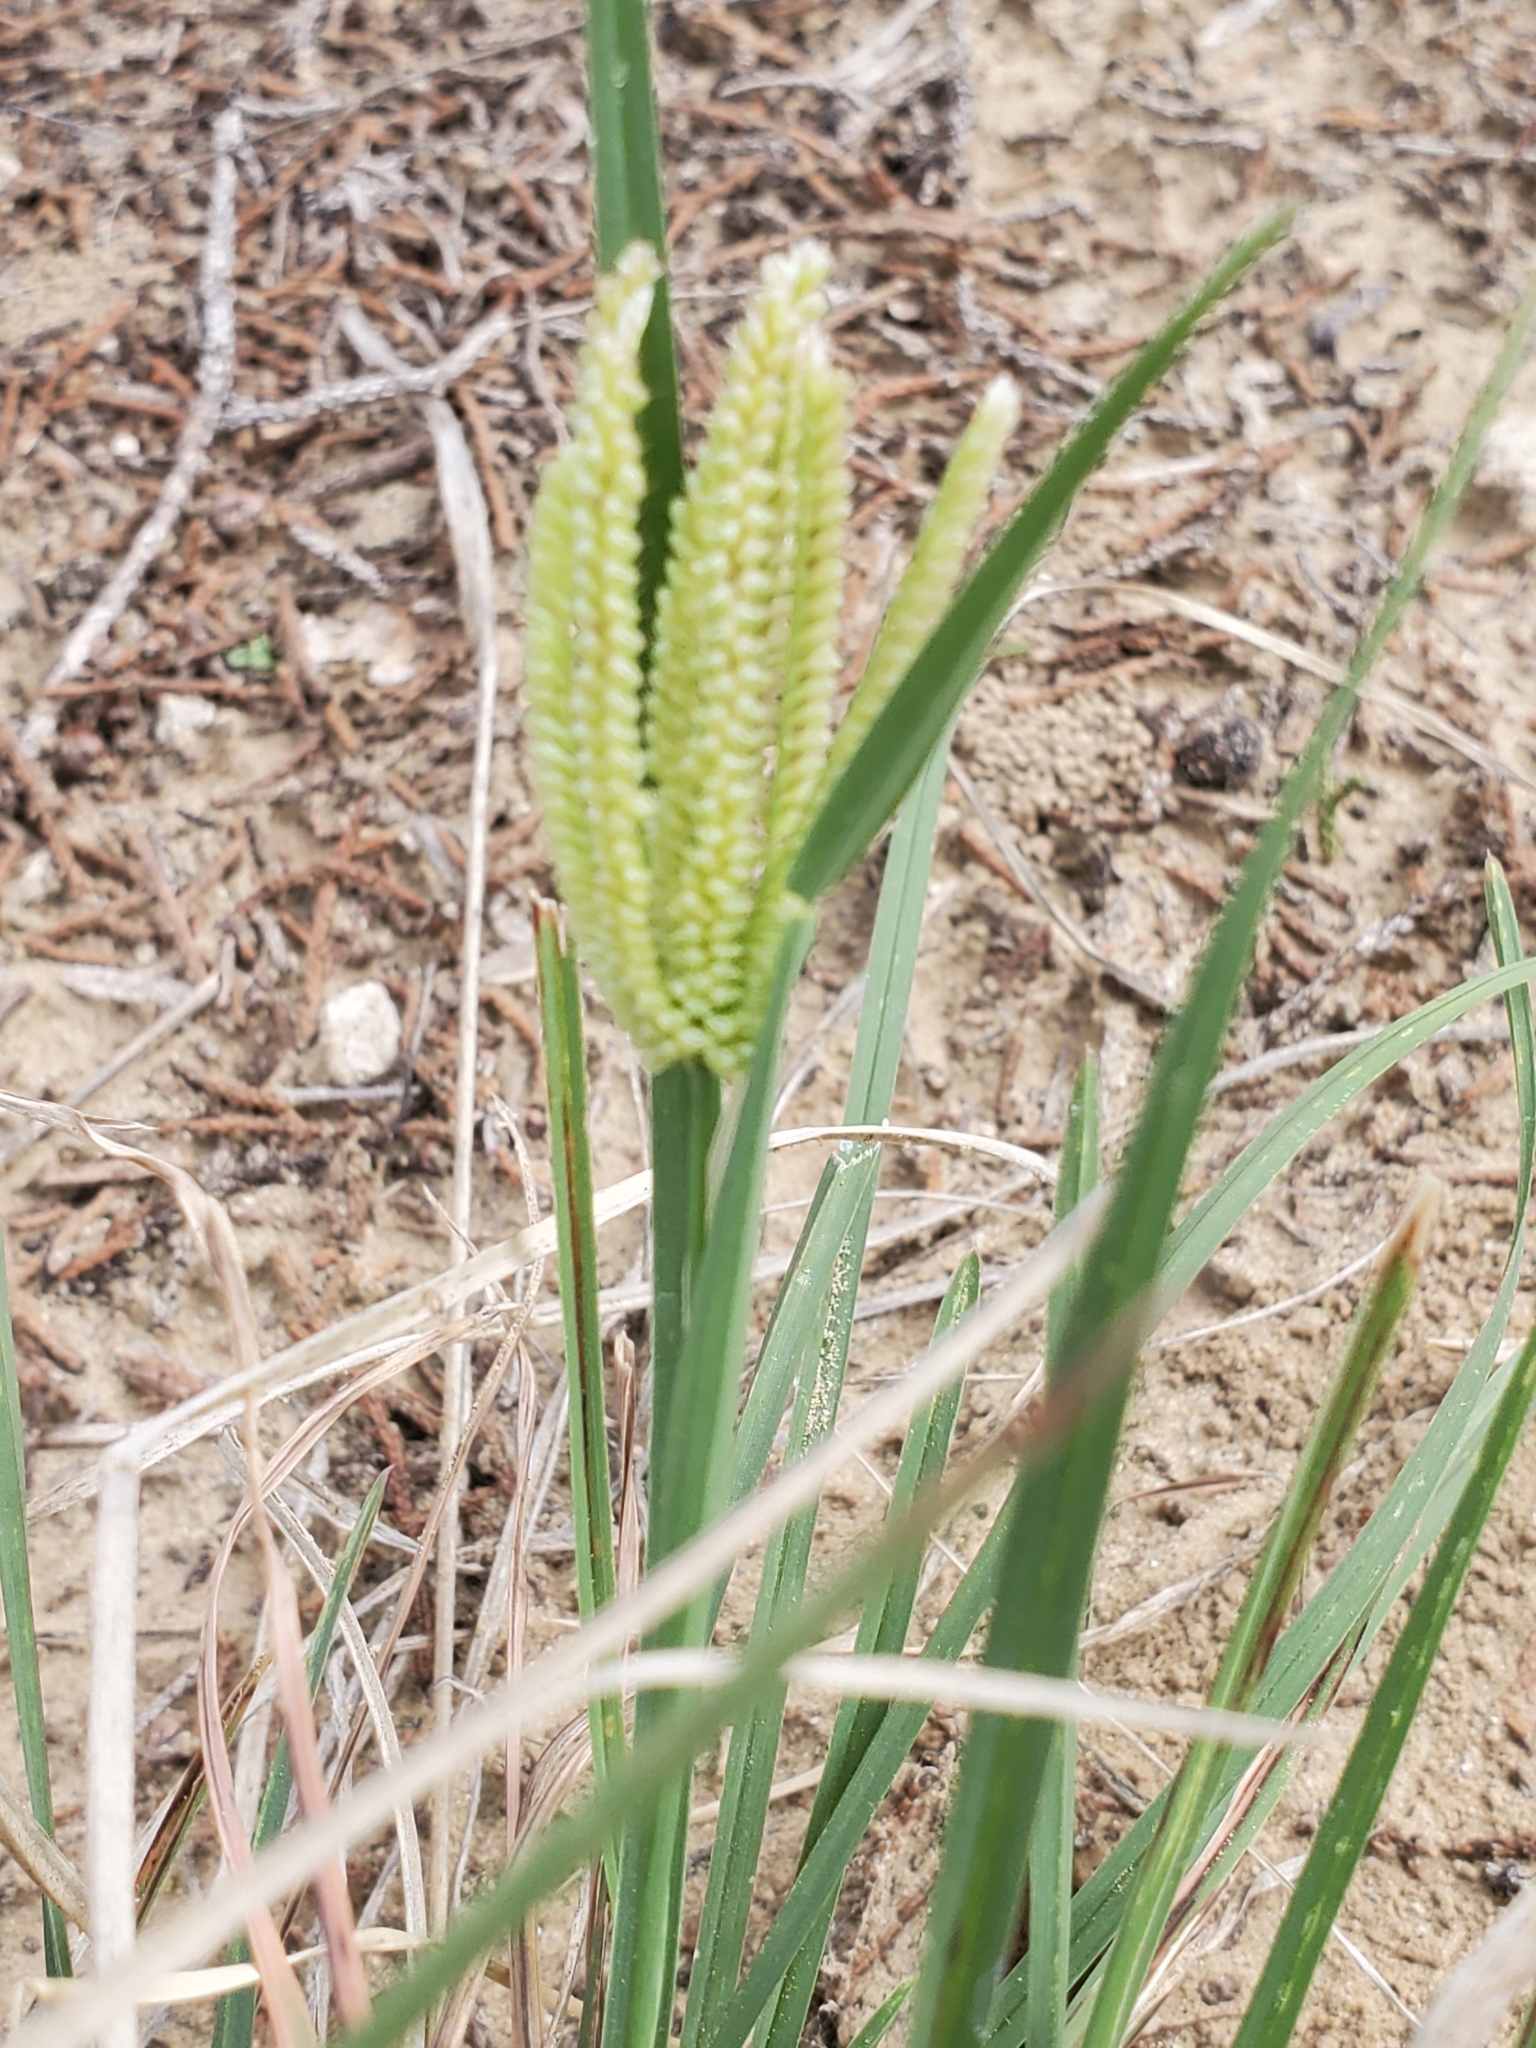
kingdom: Plantae
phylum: Tracheophyta
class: Liliopsida
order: Poales
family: Poaceae
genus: Chloris
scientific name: Chloris cucullata
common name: Hooded windmill grass
